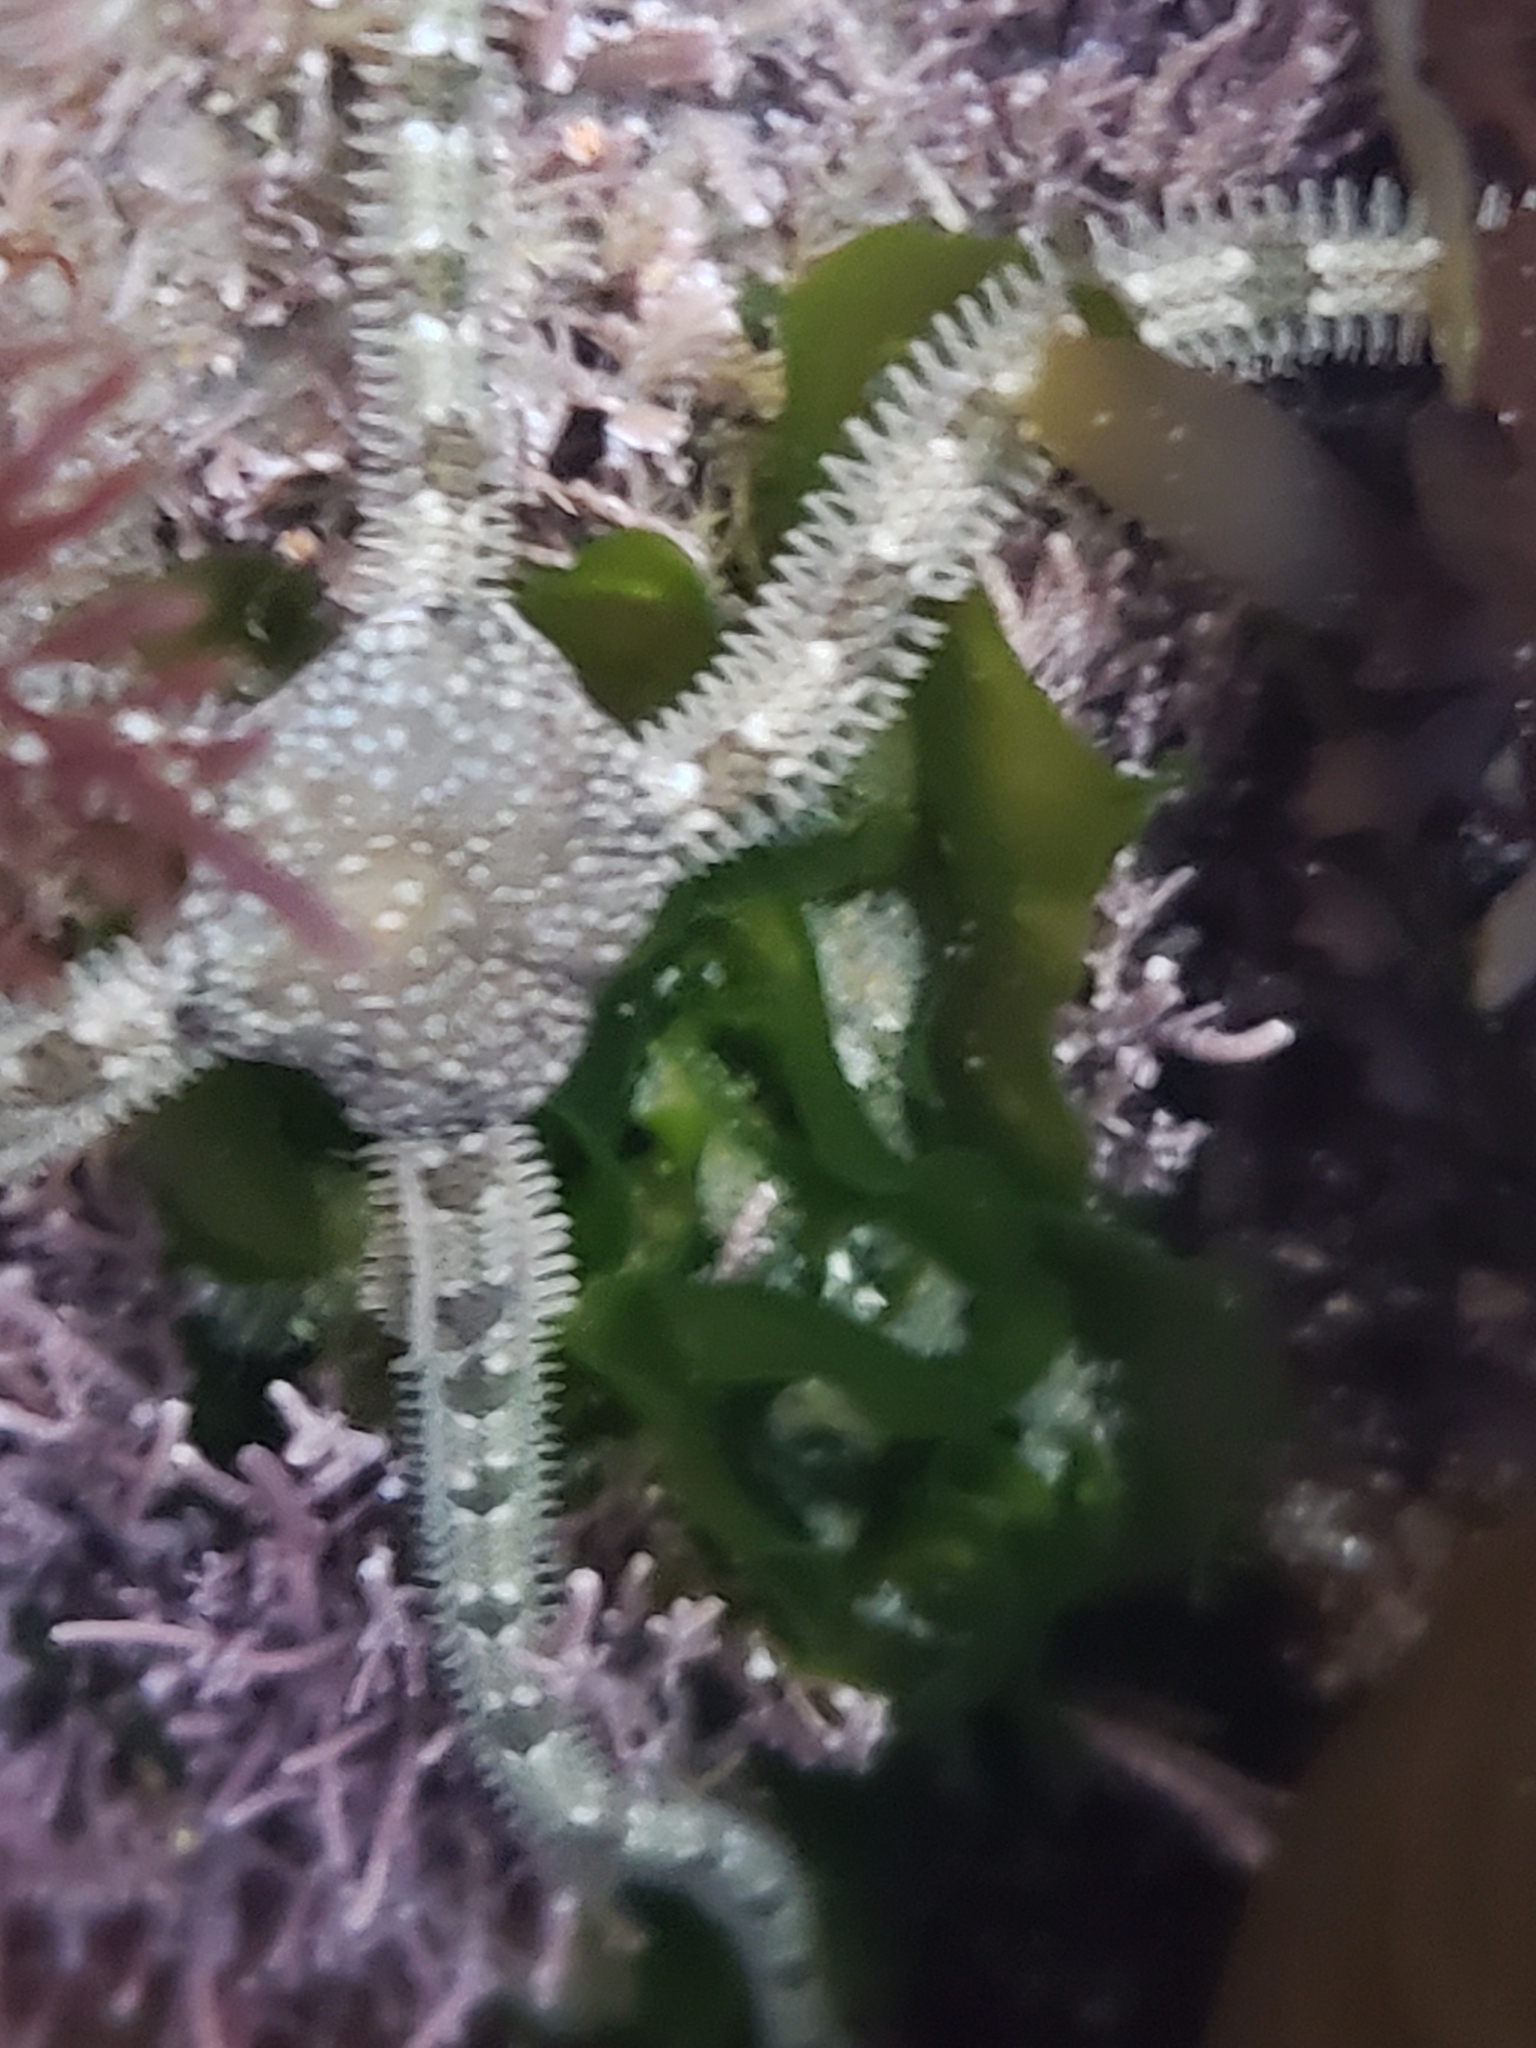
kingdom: Animalia
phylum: Echinodermata
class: Ophiuroidea
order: Amphilepidida
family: Ophionereididae
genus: Ophionereis
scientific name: Ophionereis annulata
